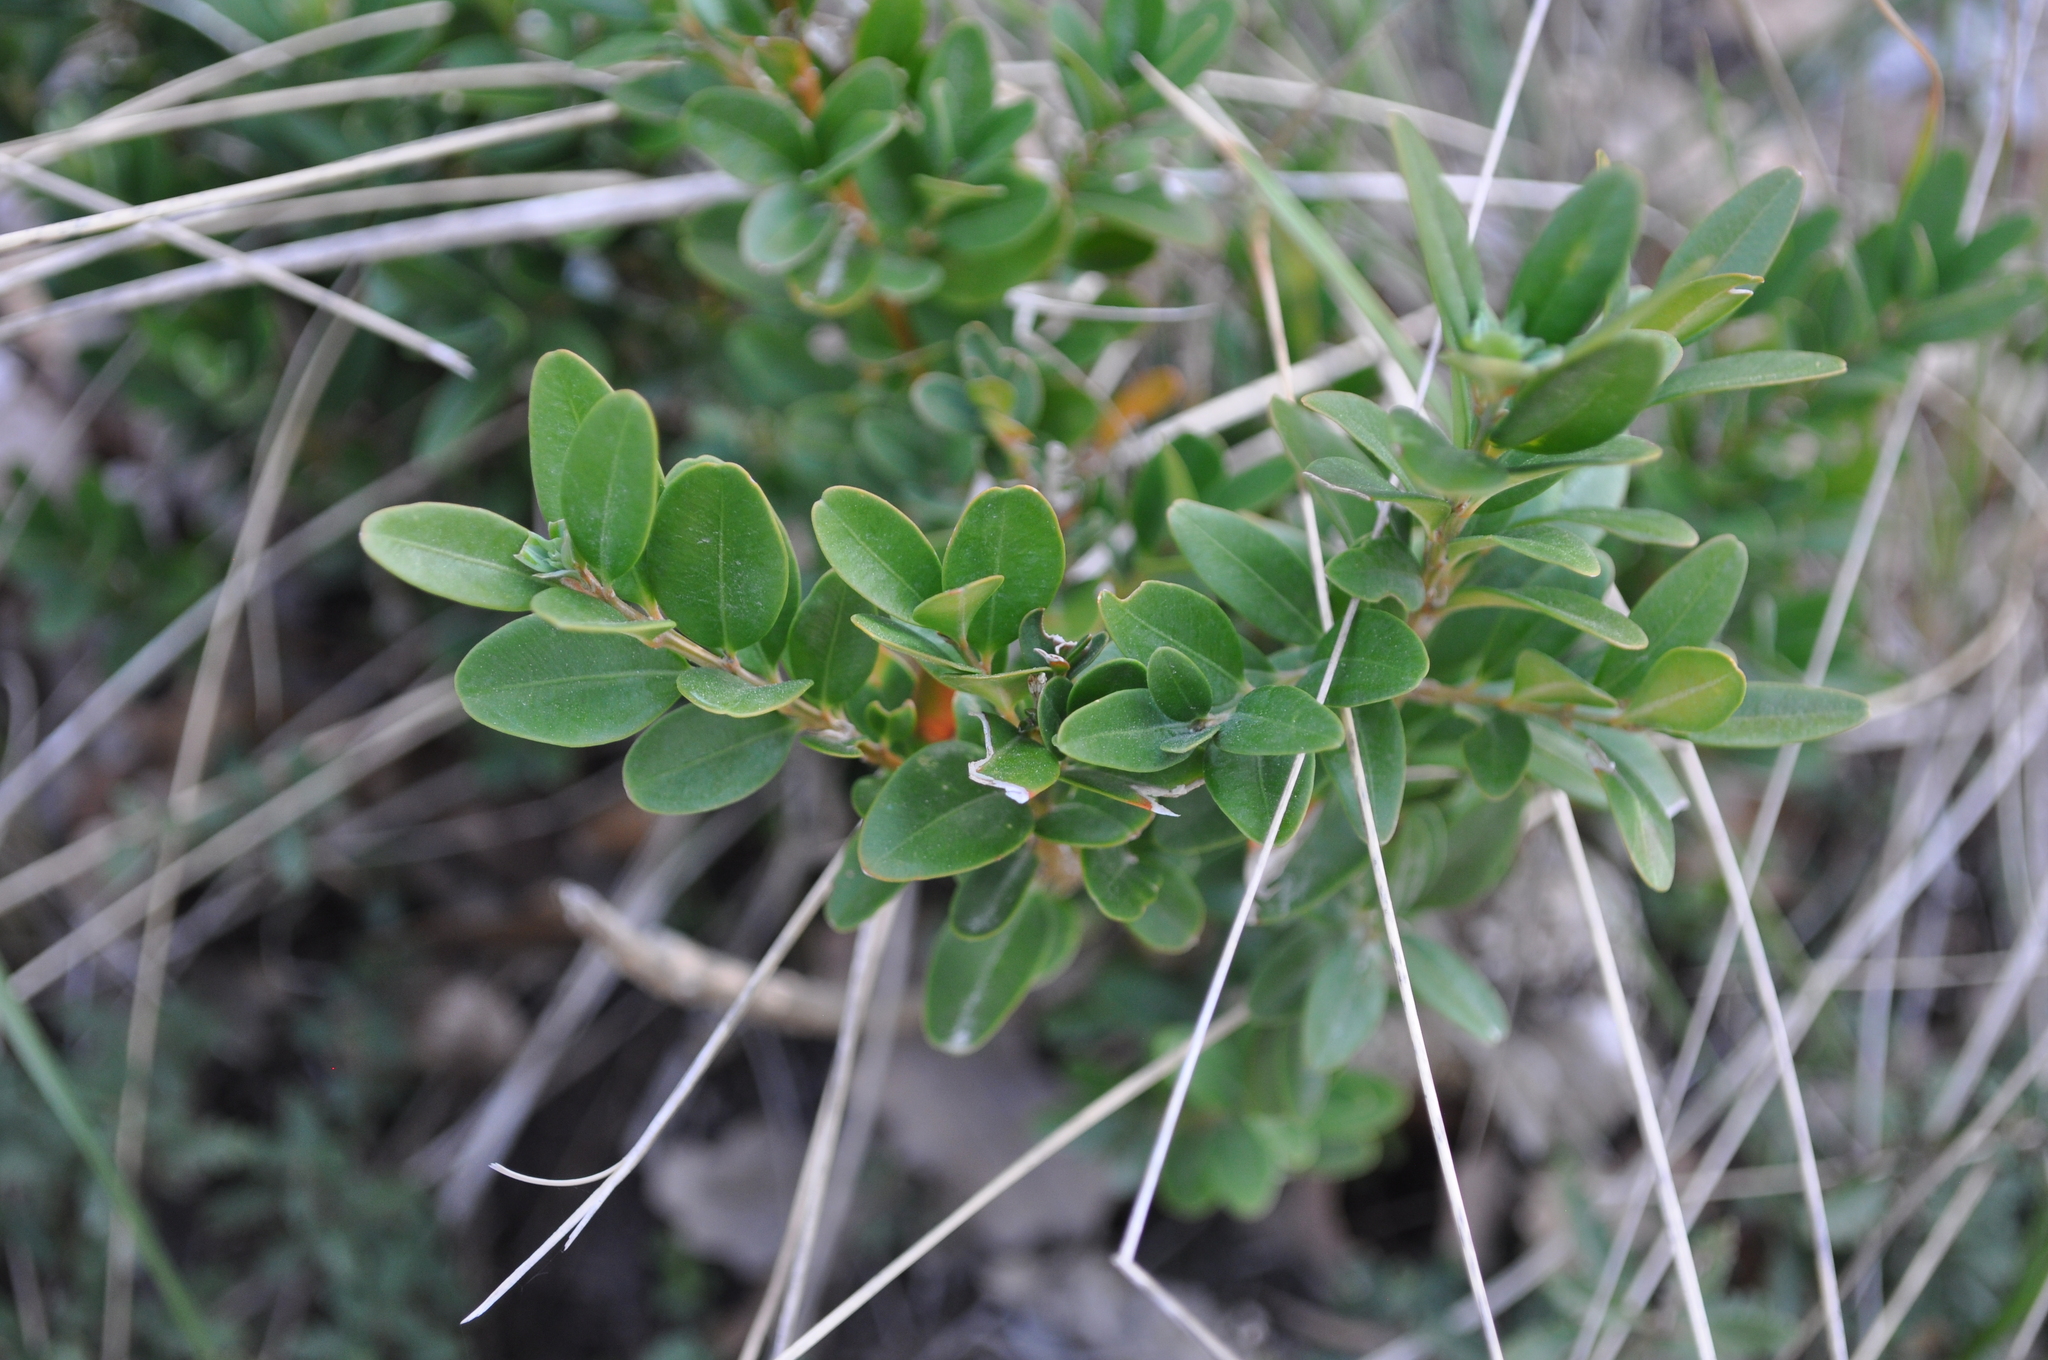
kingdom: Plantae
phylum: Tracheophyta
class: Magnoliopsida
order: Buxales
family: Buxaceae
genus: Buxus
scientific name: Buxus sempervirens
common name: Box
